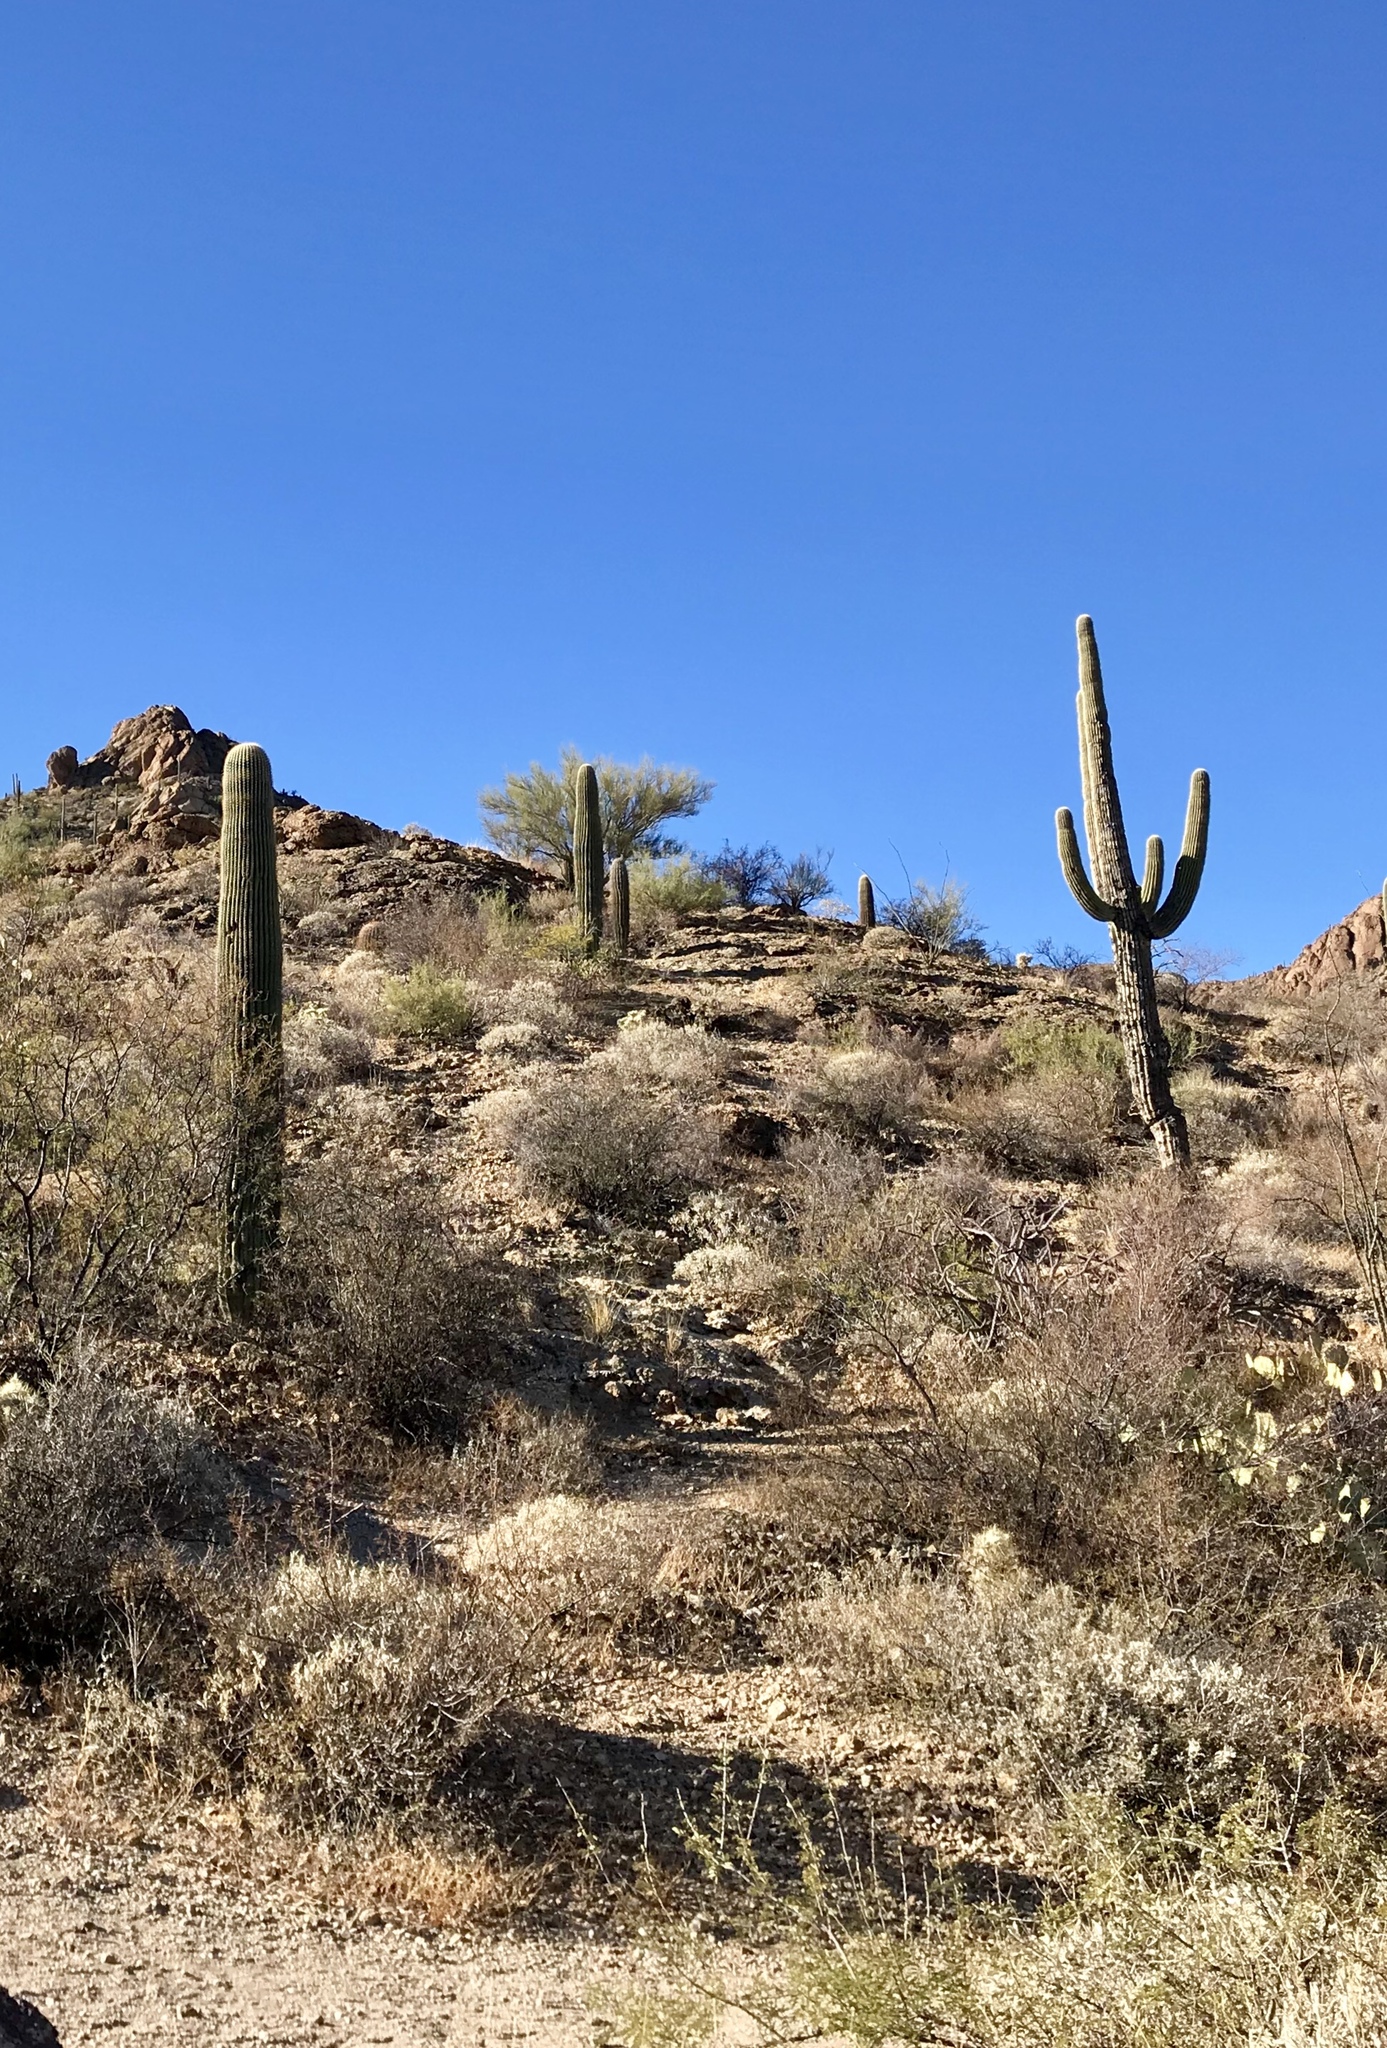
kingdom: Plantae
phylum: Tracheophyta
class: Magnoliopsida
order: Caryophyllales
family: Cactaceae
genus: Carnegiea
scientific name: Carnegiea gigantea
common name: Saguaro
